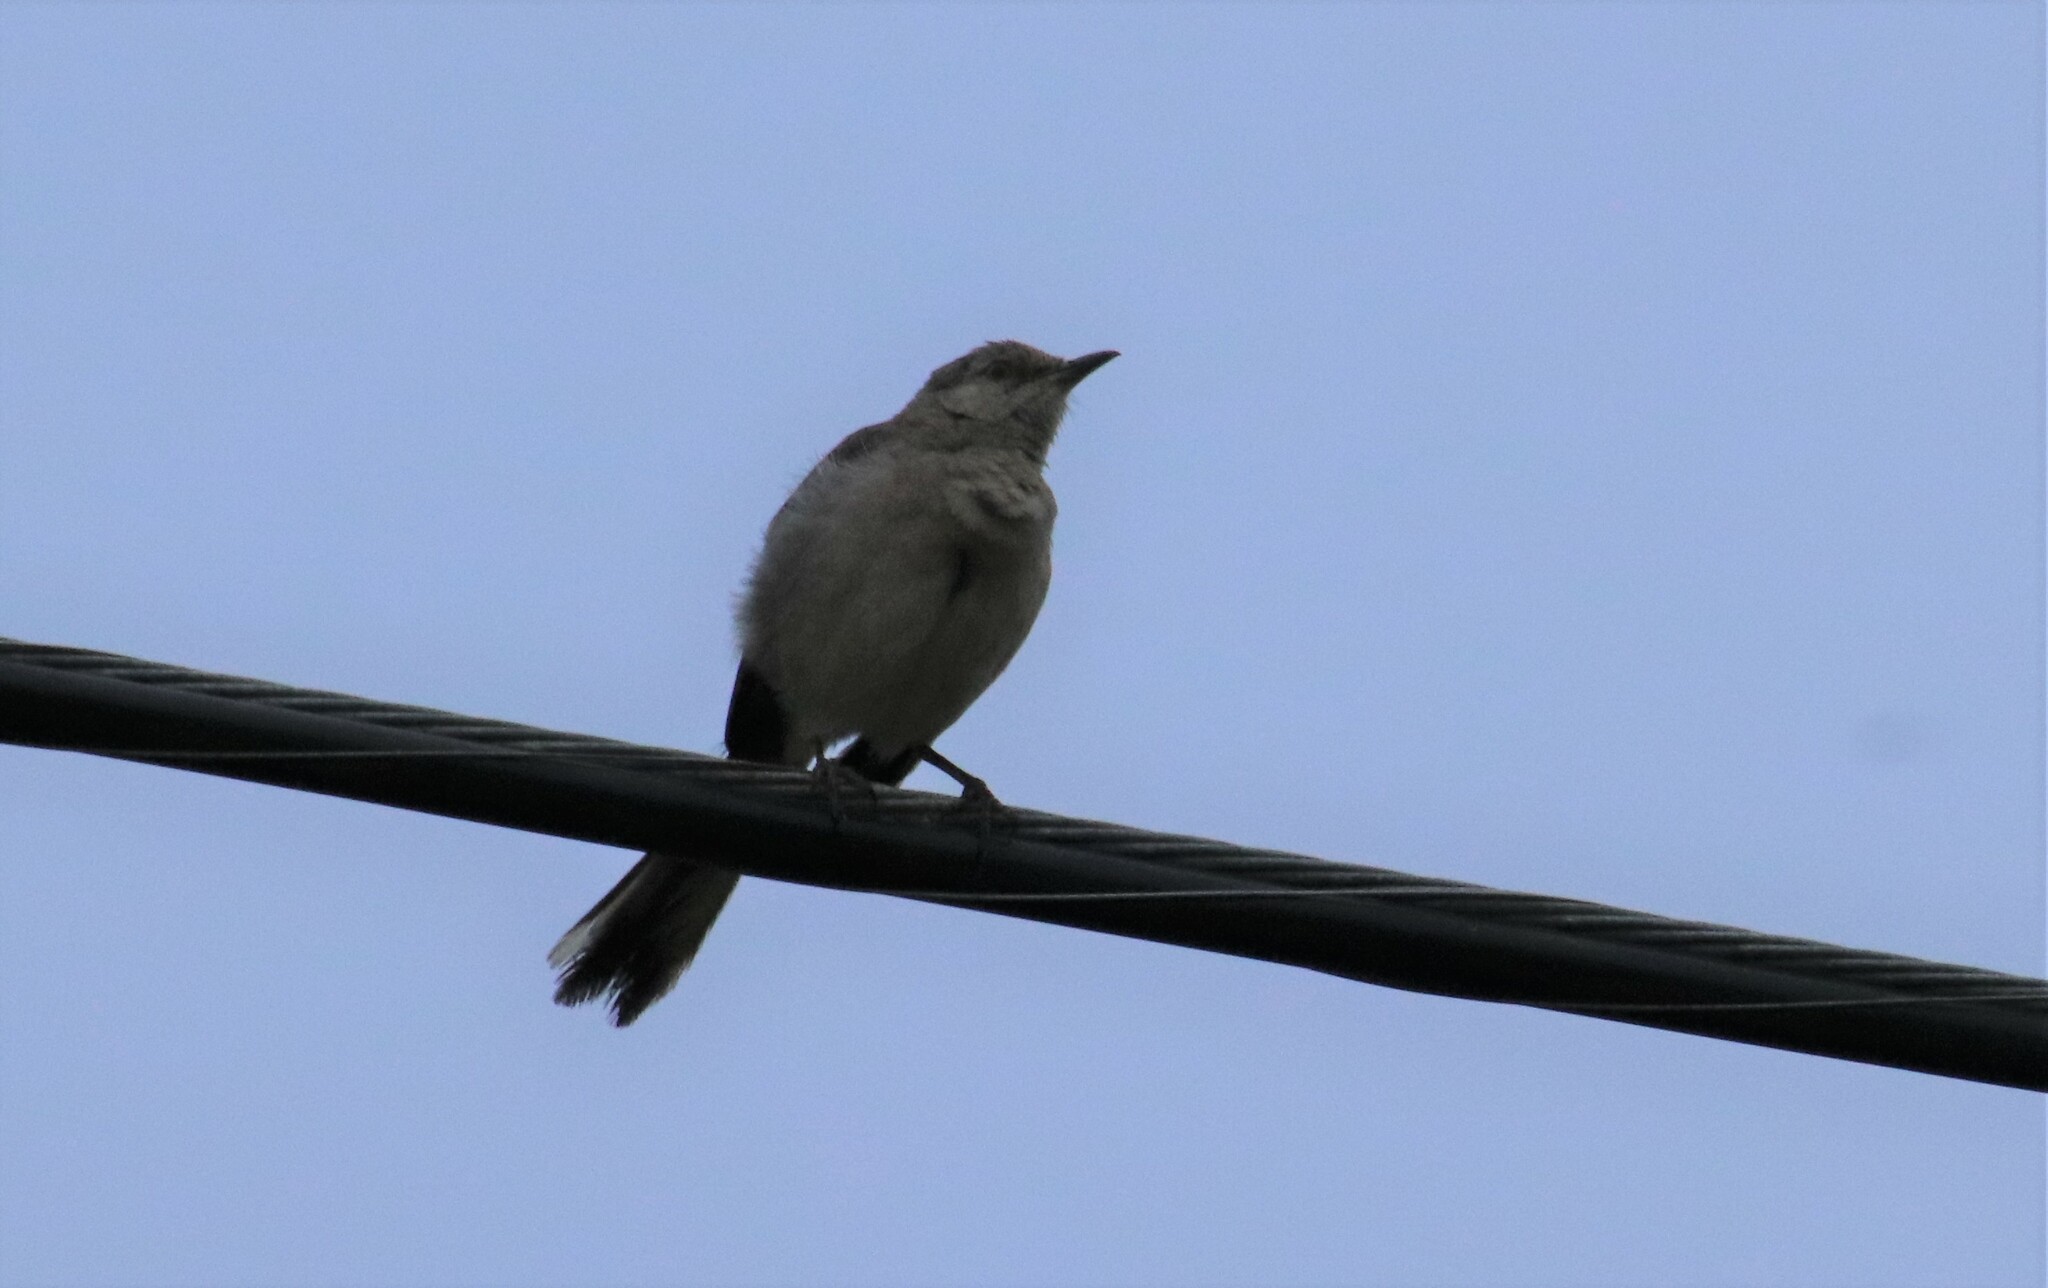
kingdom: Animalia
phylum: Chordata
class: Aves
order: Passeriformes
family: Mimidae
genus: Mimus
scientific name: Mimus polyglottos
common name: Northern mockingbird
